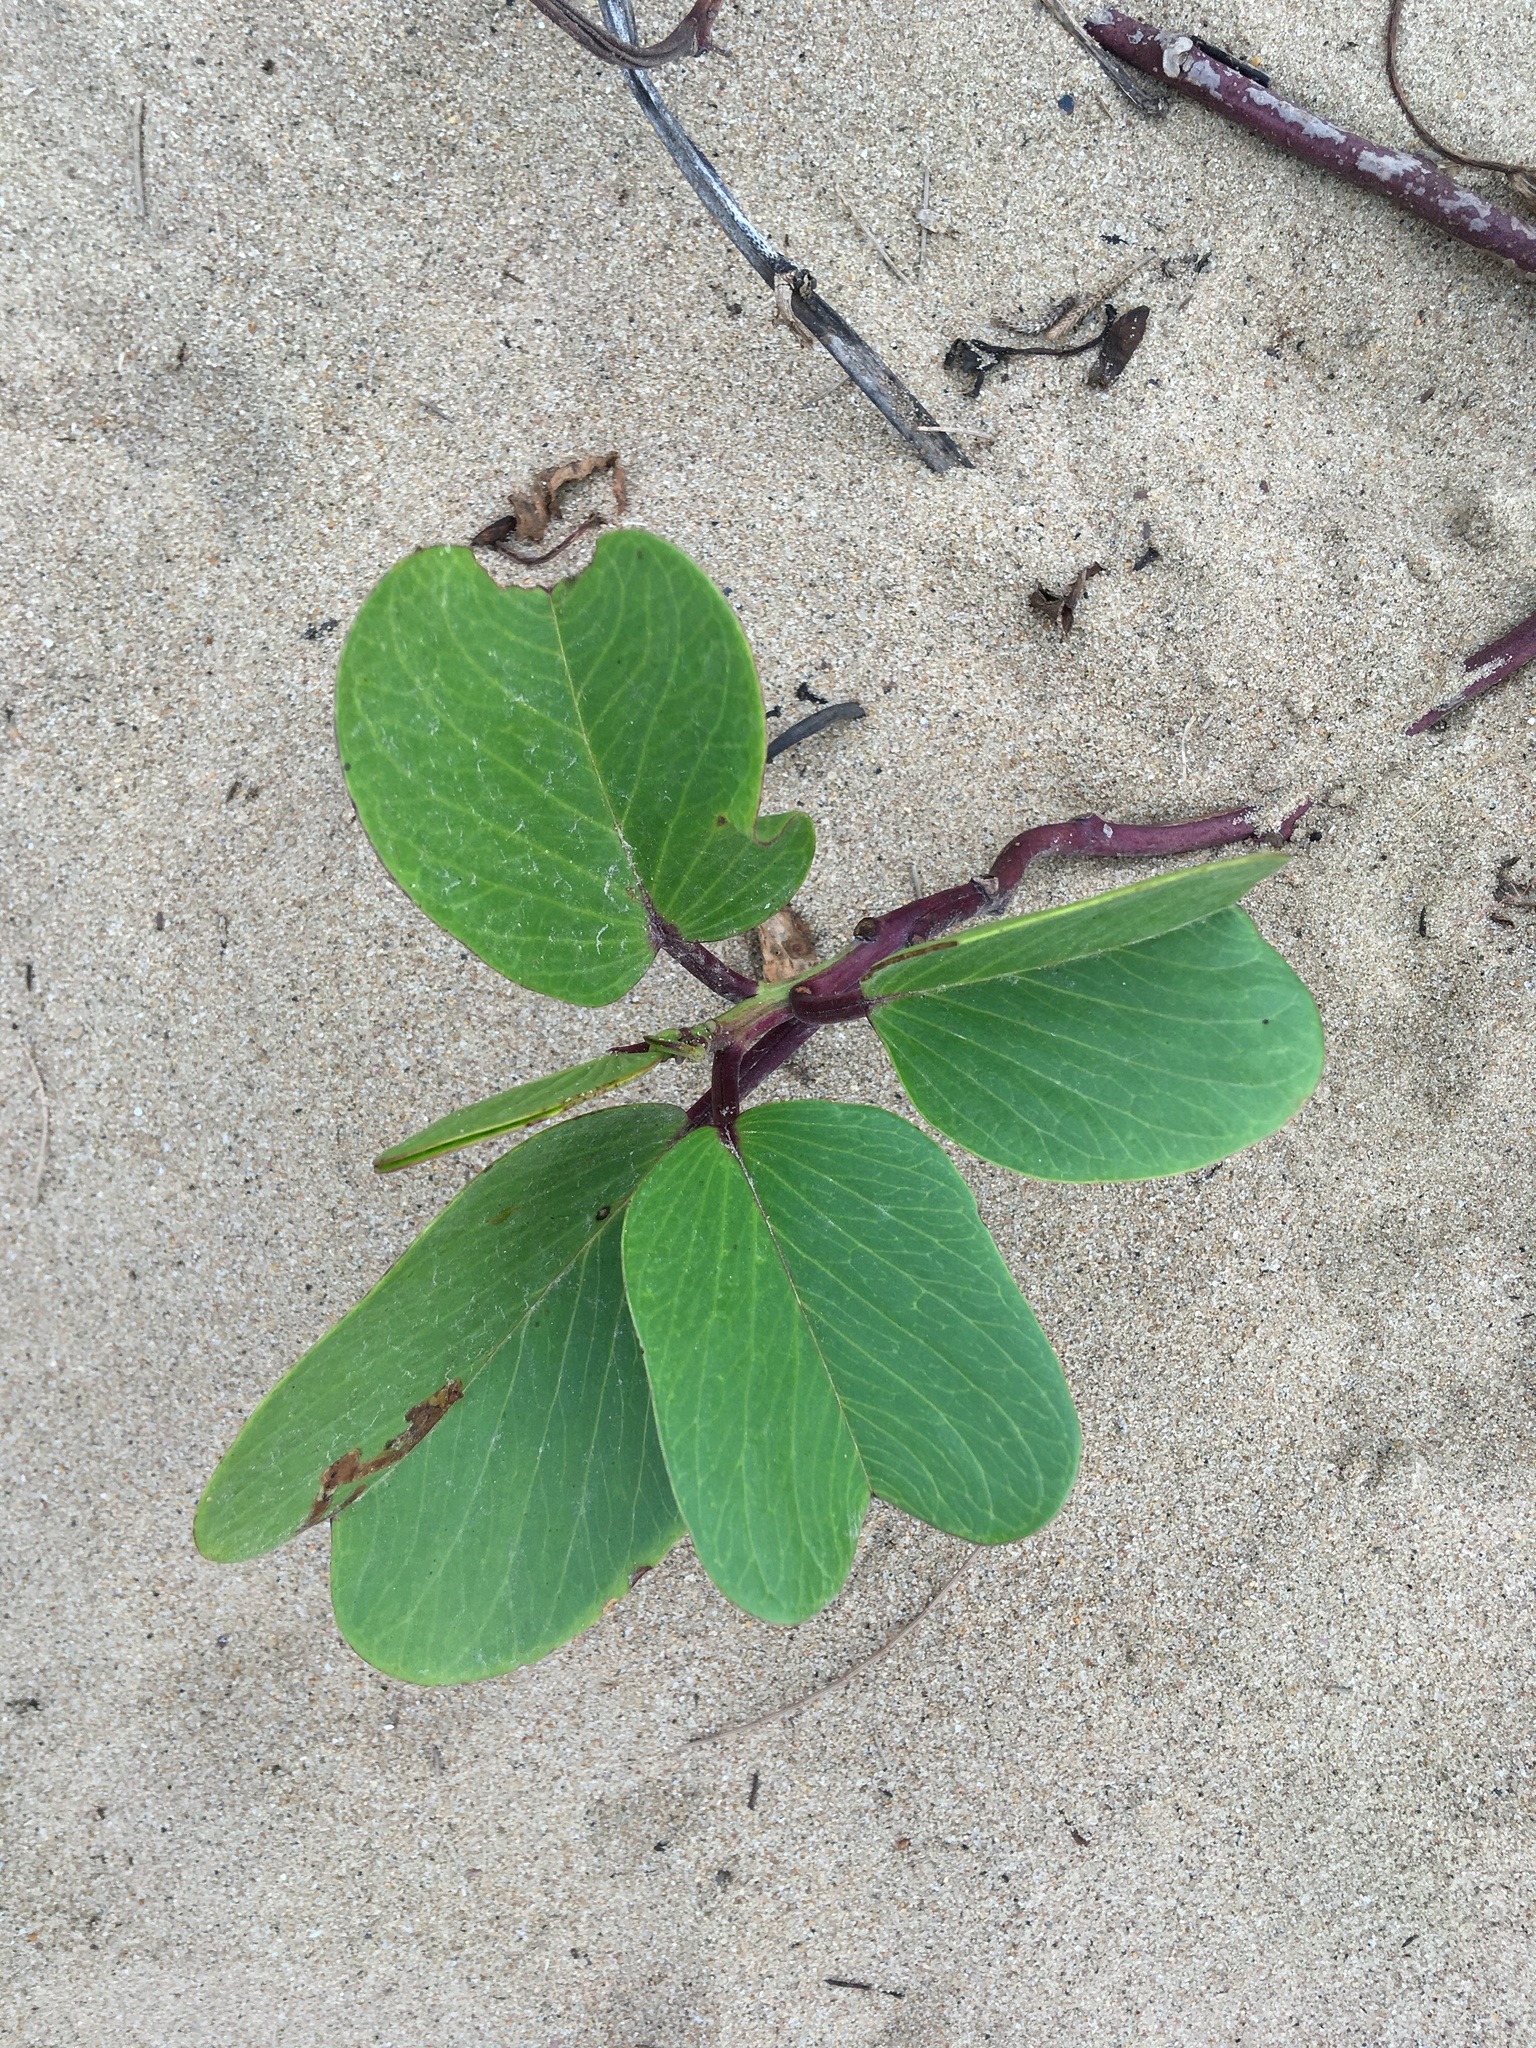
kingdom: Plantae
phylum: Tracheophyta
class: Magnoliopsida
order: Solanales
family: Convolvulaceae
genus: Ipomoea
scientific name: Ipomoea pes-caprae
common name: Beach morning glory
